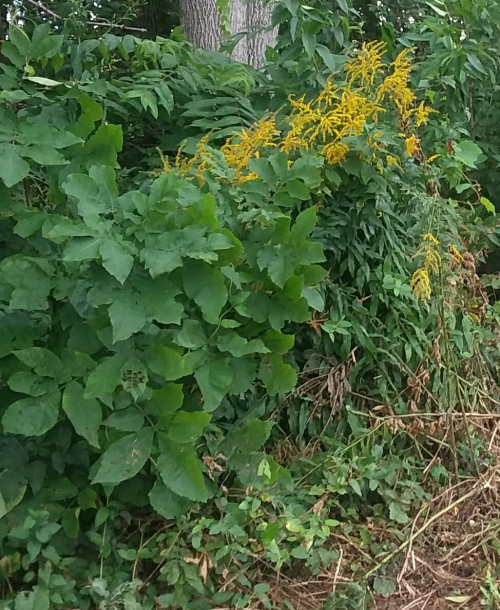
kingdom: Plantae
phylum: Tracheophyta
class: Magnoliopsida
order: Fagales
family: Juglandaceae
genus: Carya
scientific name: Carya cordiformis
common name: Bitternut hickory
